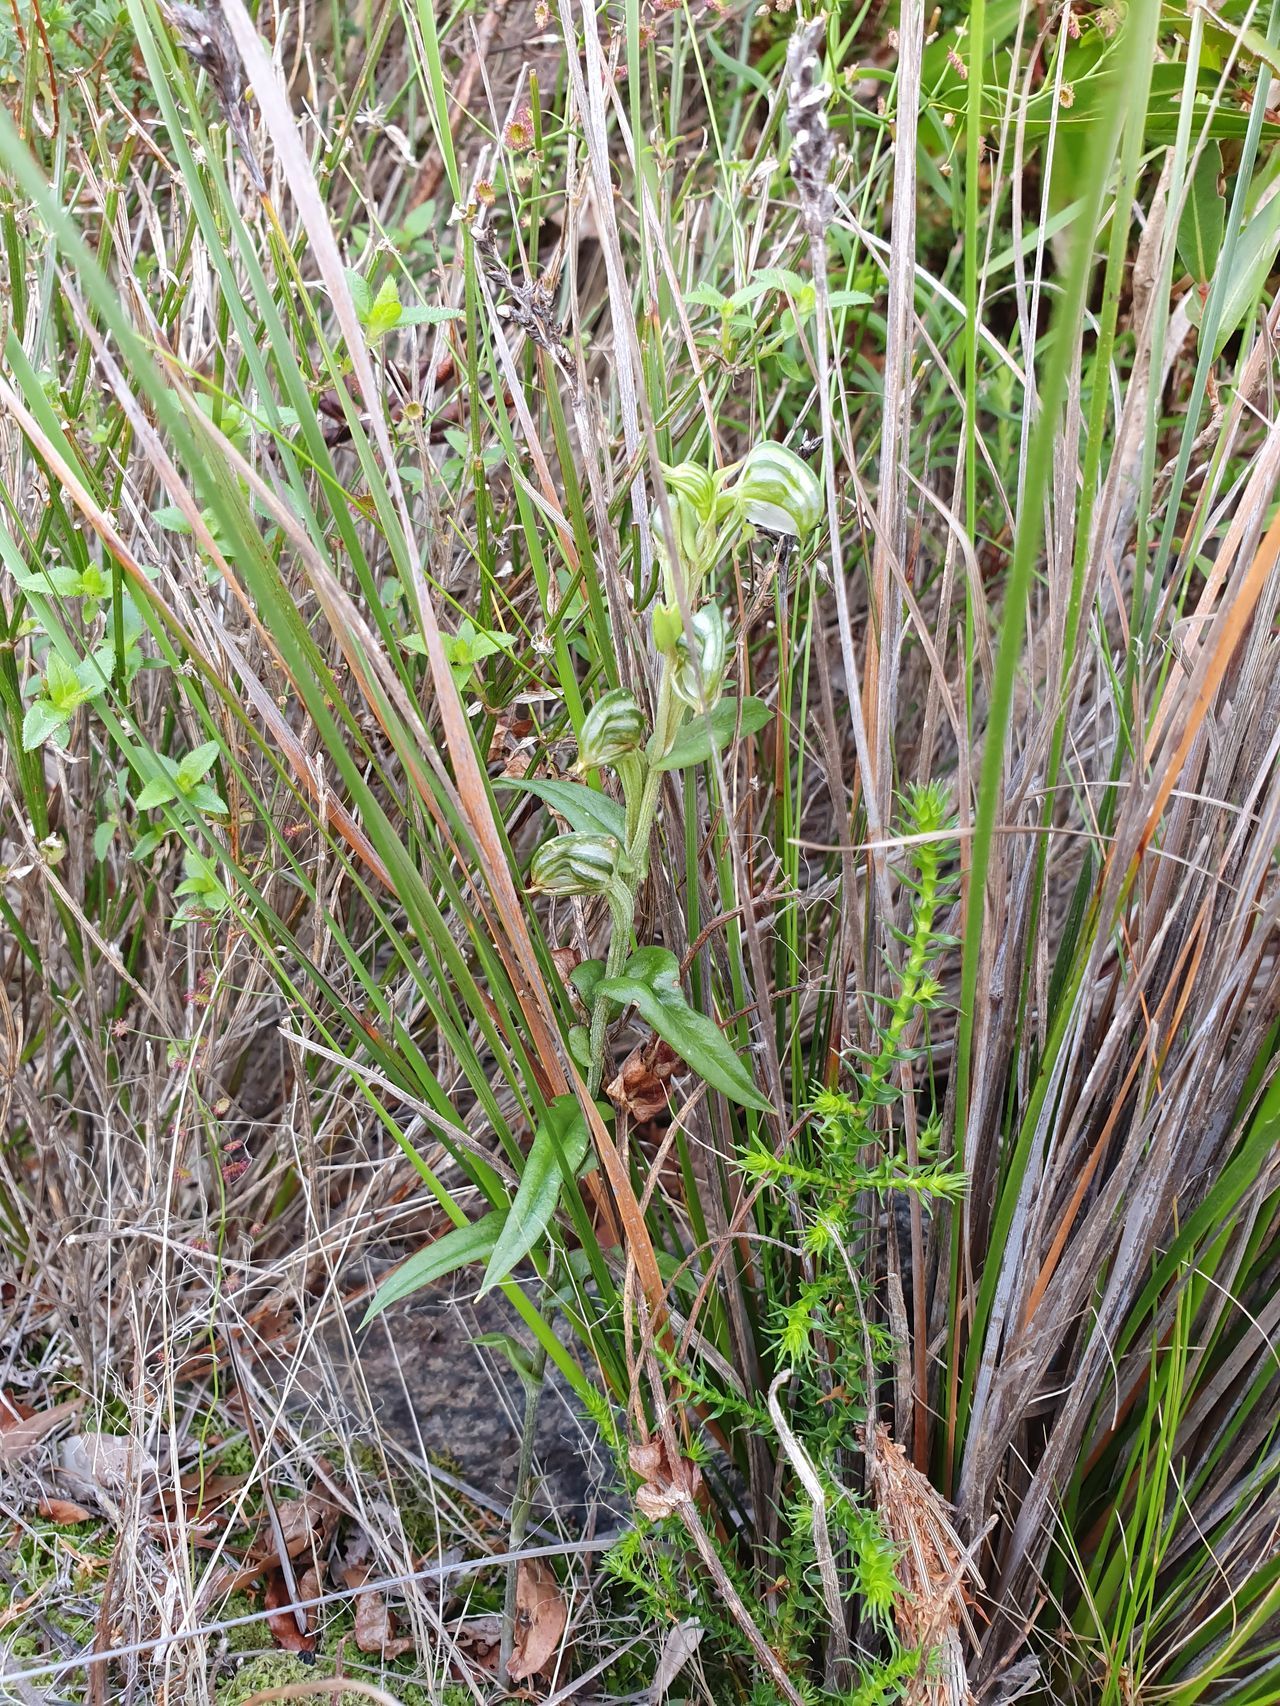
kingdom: Plantae
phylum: Tracheophyta
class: Liliopsida
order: Asparagales
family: Orchidaceae
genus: Pterostylis
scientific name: Pterostylis vittata
